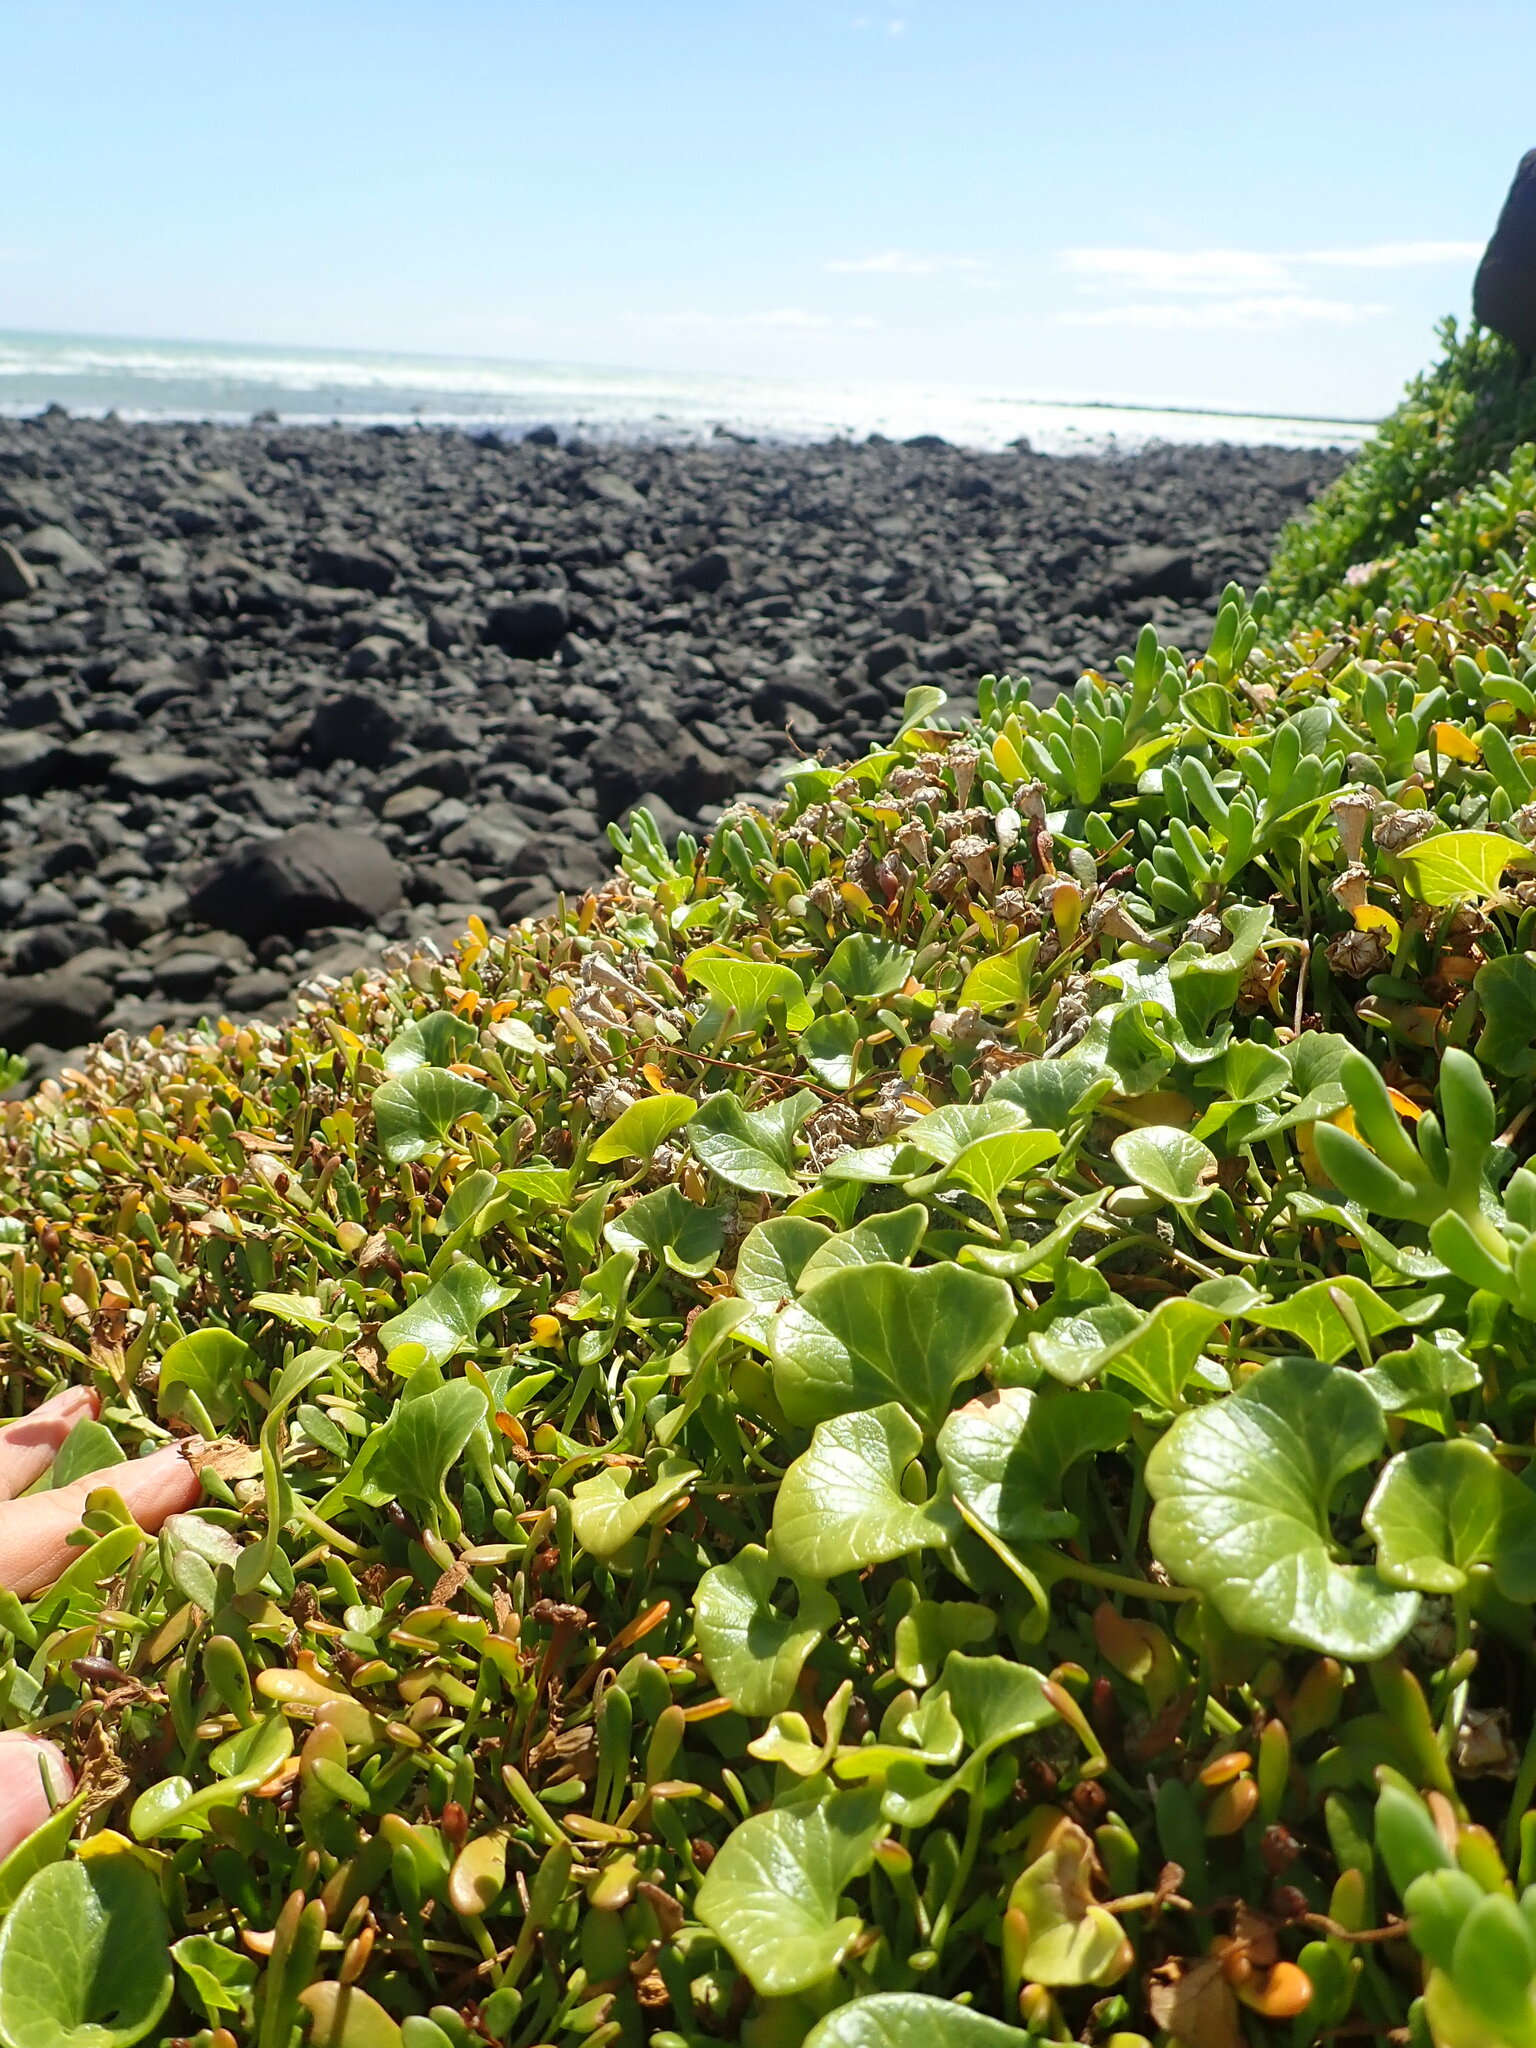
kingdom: Plantae
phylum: Tracheophyta
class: Magnoliopsida
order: Solanales
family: Convolvulaceae
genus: Calystegia
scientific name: Calystegia soldanella
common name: Sea bindweed
